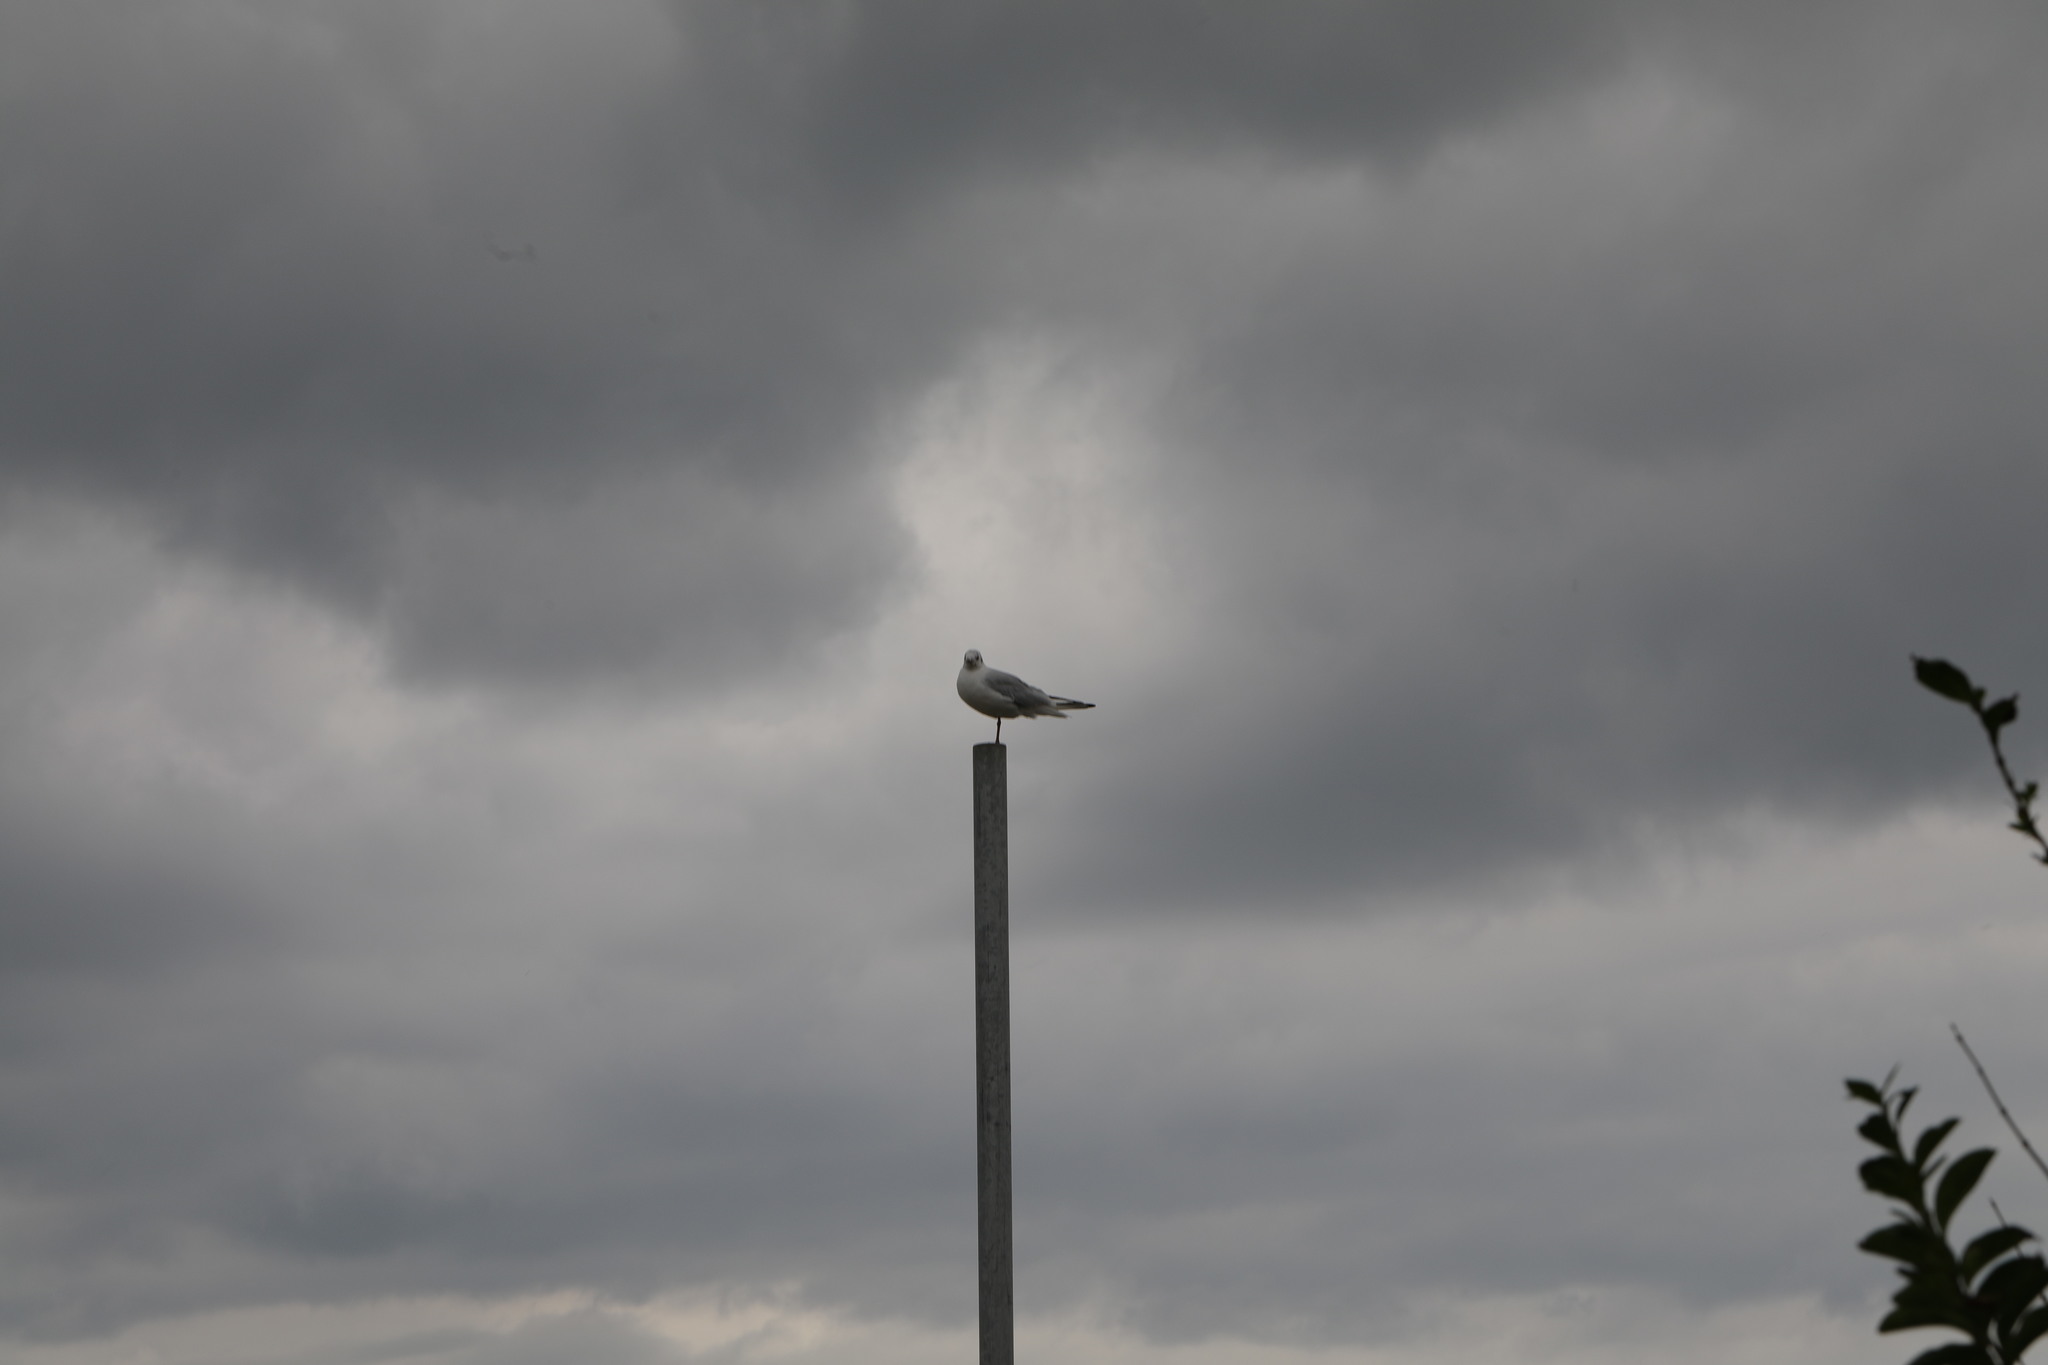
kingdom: Animalia
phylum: Chordata
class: Aves
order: Charadriiformes
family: Laridae
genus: Chroicocephalus
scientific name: Chroicocephalus ridibundus
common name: Black-headed gull
